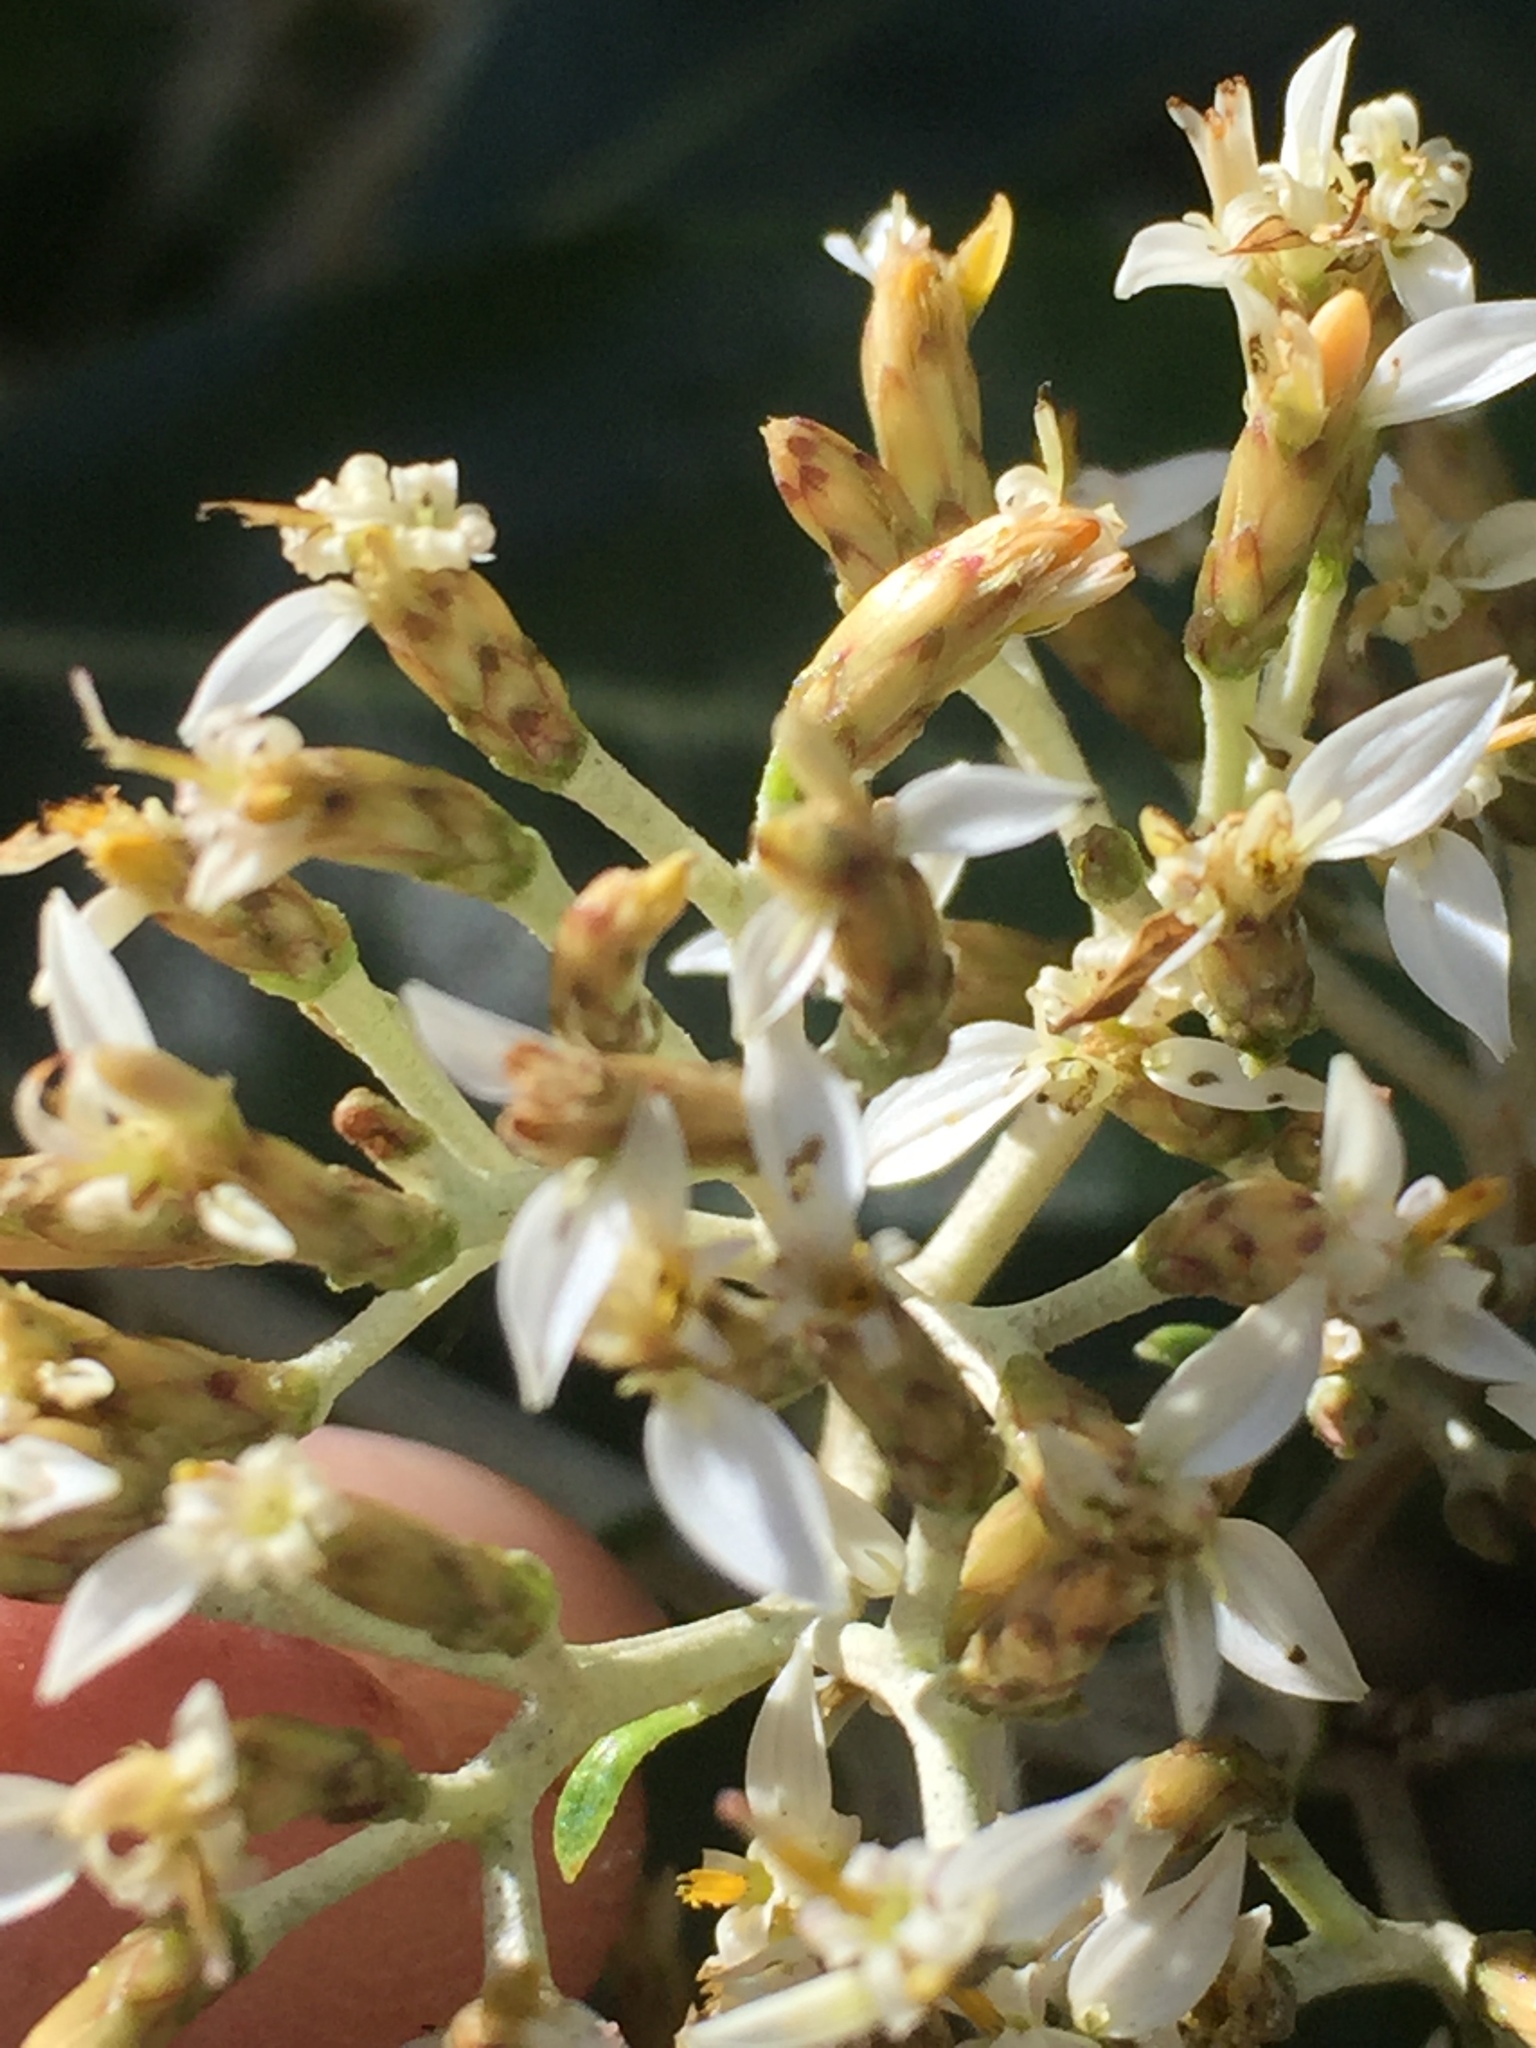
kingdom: Plantae
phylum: Tracheophyta
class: Magnoliopsida
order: Asterales
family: Asteraceae
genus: Olearia
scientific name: Olearia avicenniifolia
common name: Mangrove-leaf daisybush
